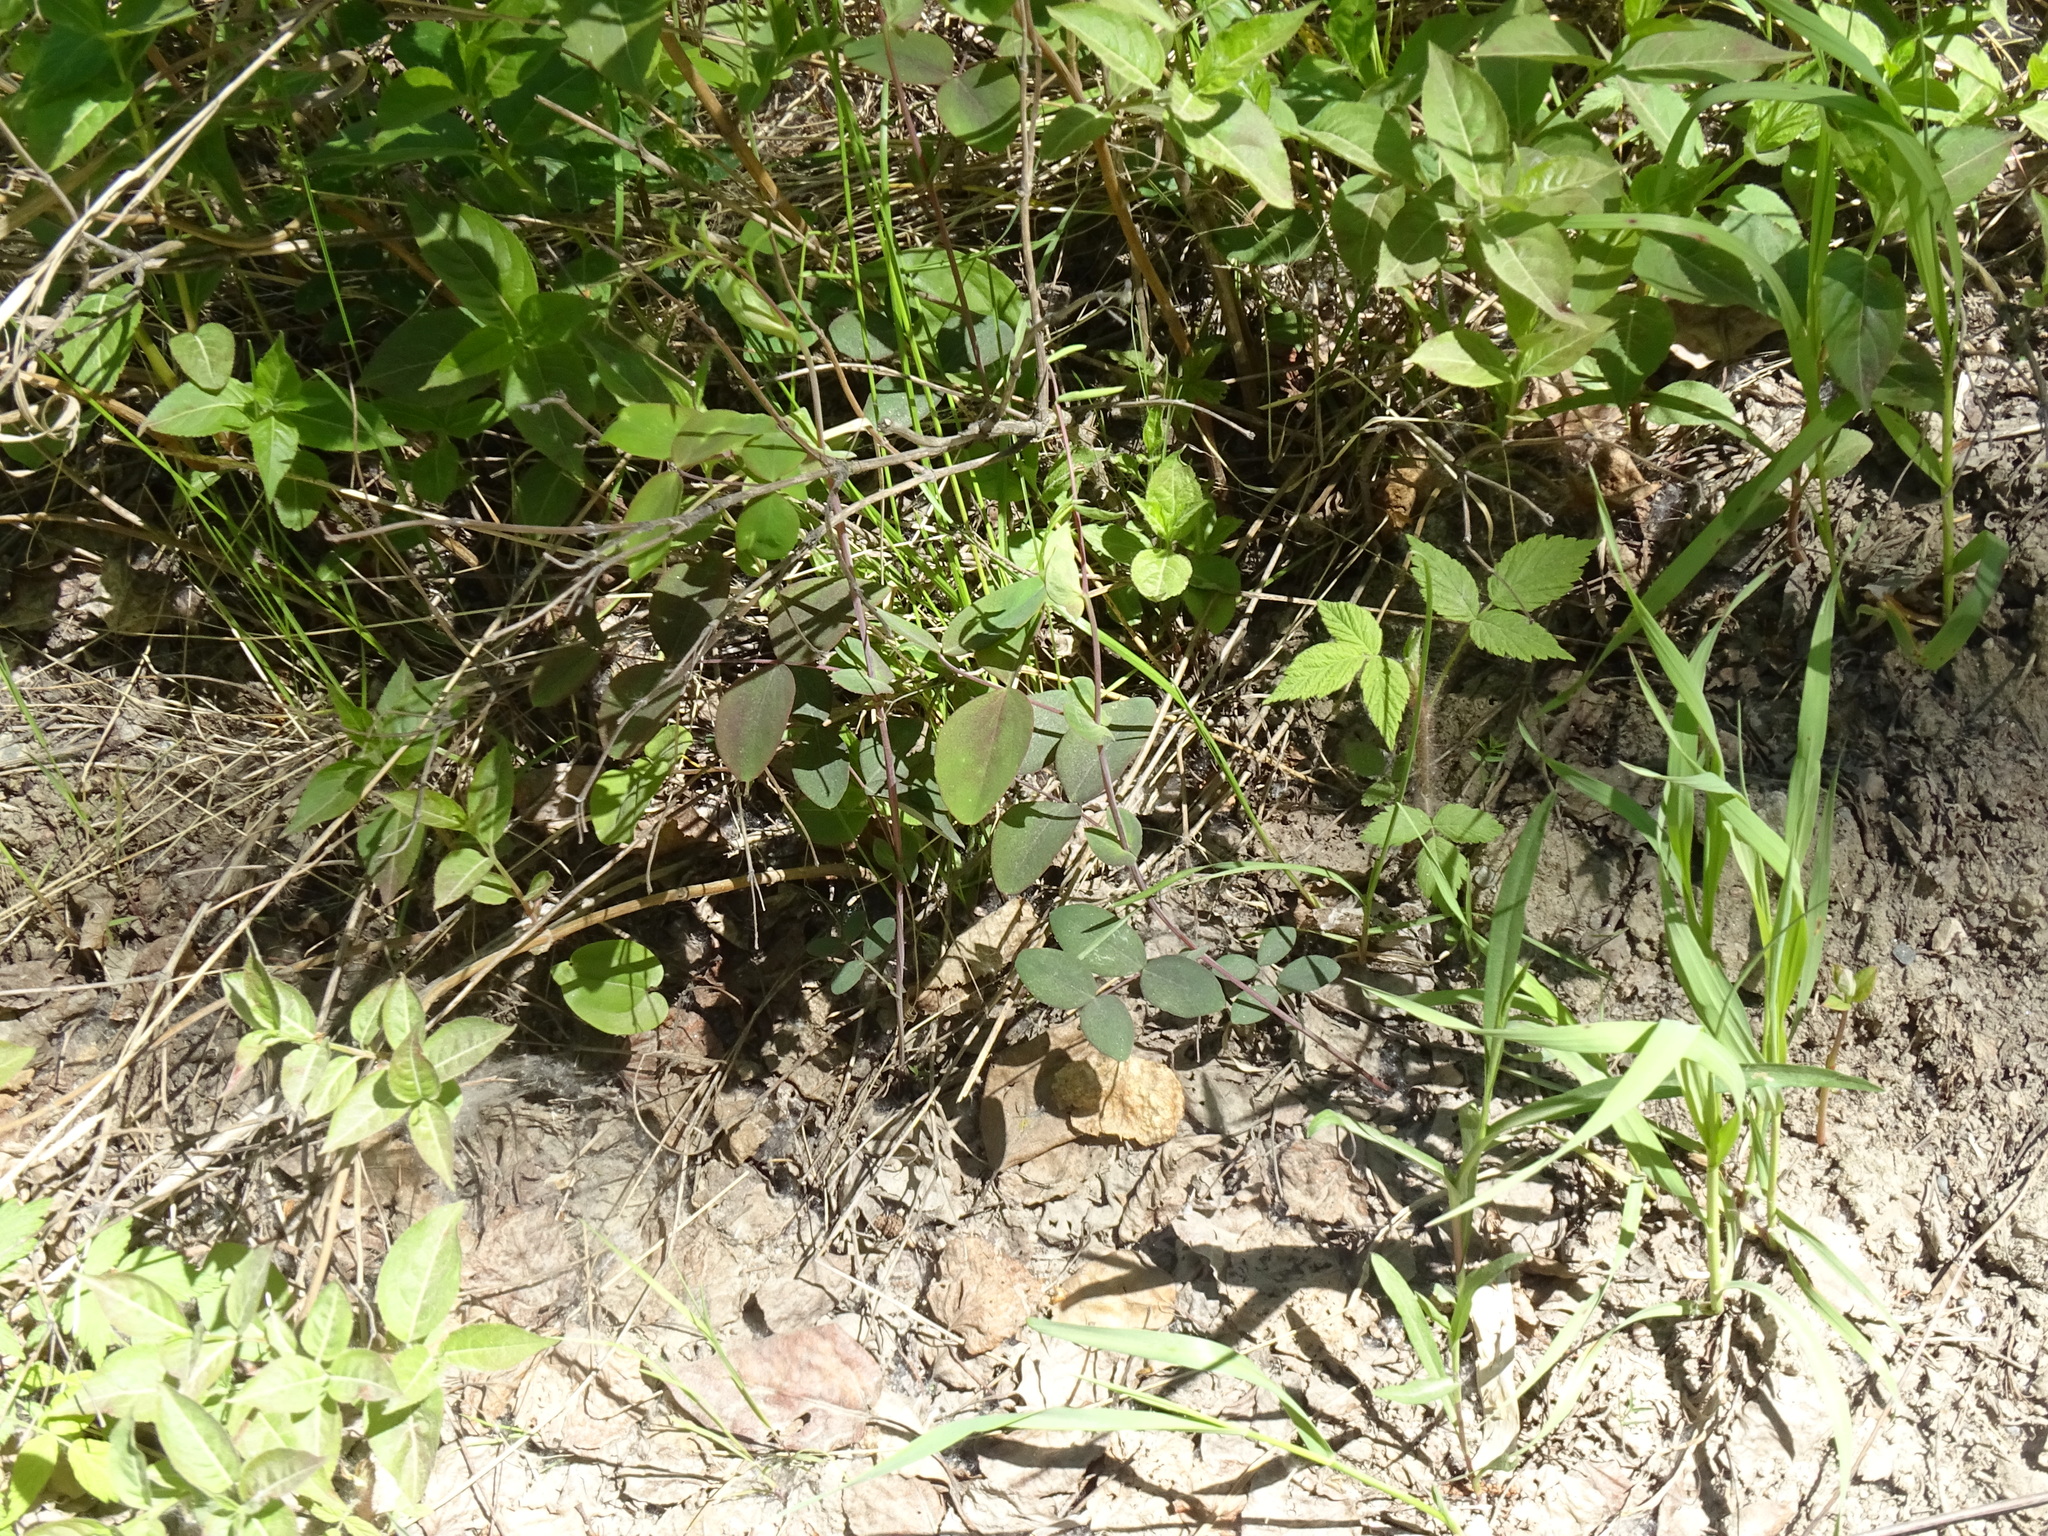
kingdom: Plantae
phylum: Tracheophyta
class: Magnoliopsida
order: Fabales
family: Fabaceae
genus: Lathyrus
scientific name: Lathyrus ochroleucus
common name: Pale vetchling
